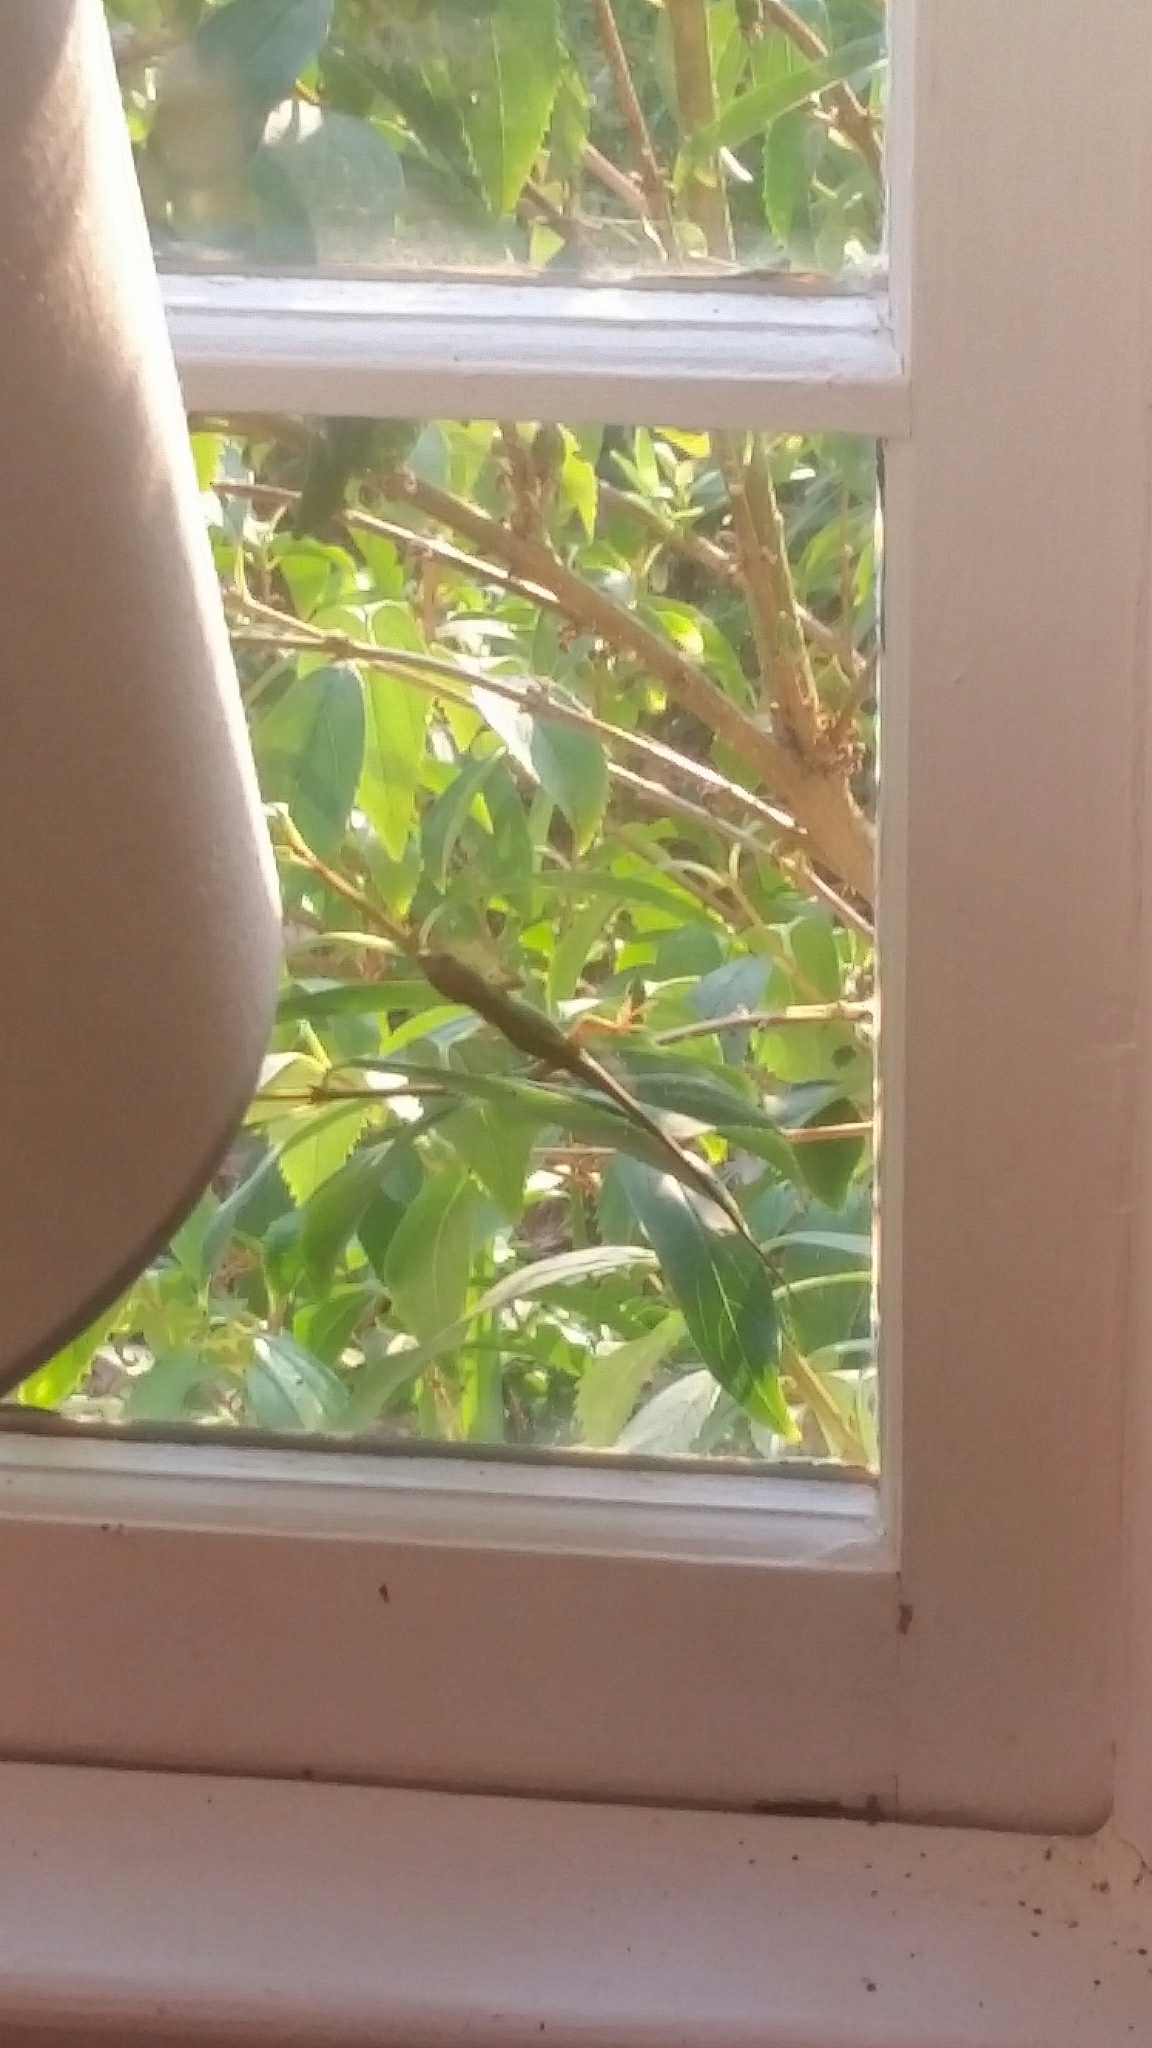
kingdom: Animalia
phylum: Chordata
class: Squamata
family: Dactyloidae
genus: Anolis
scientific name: Anolis carolinensis
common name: Green anole
